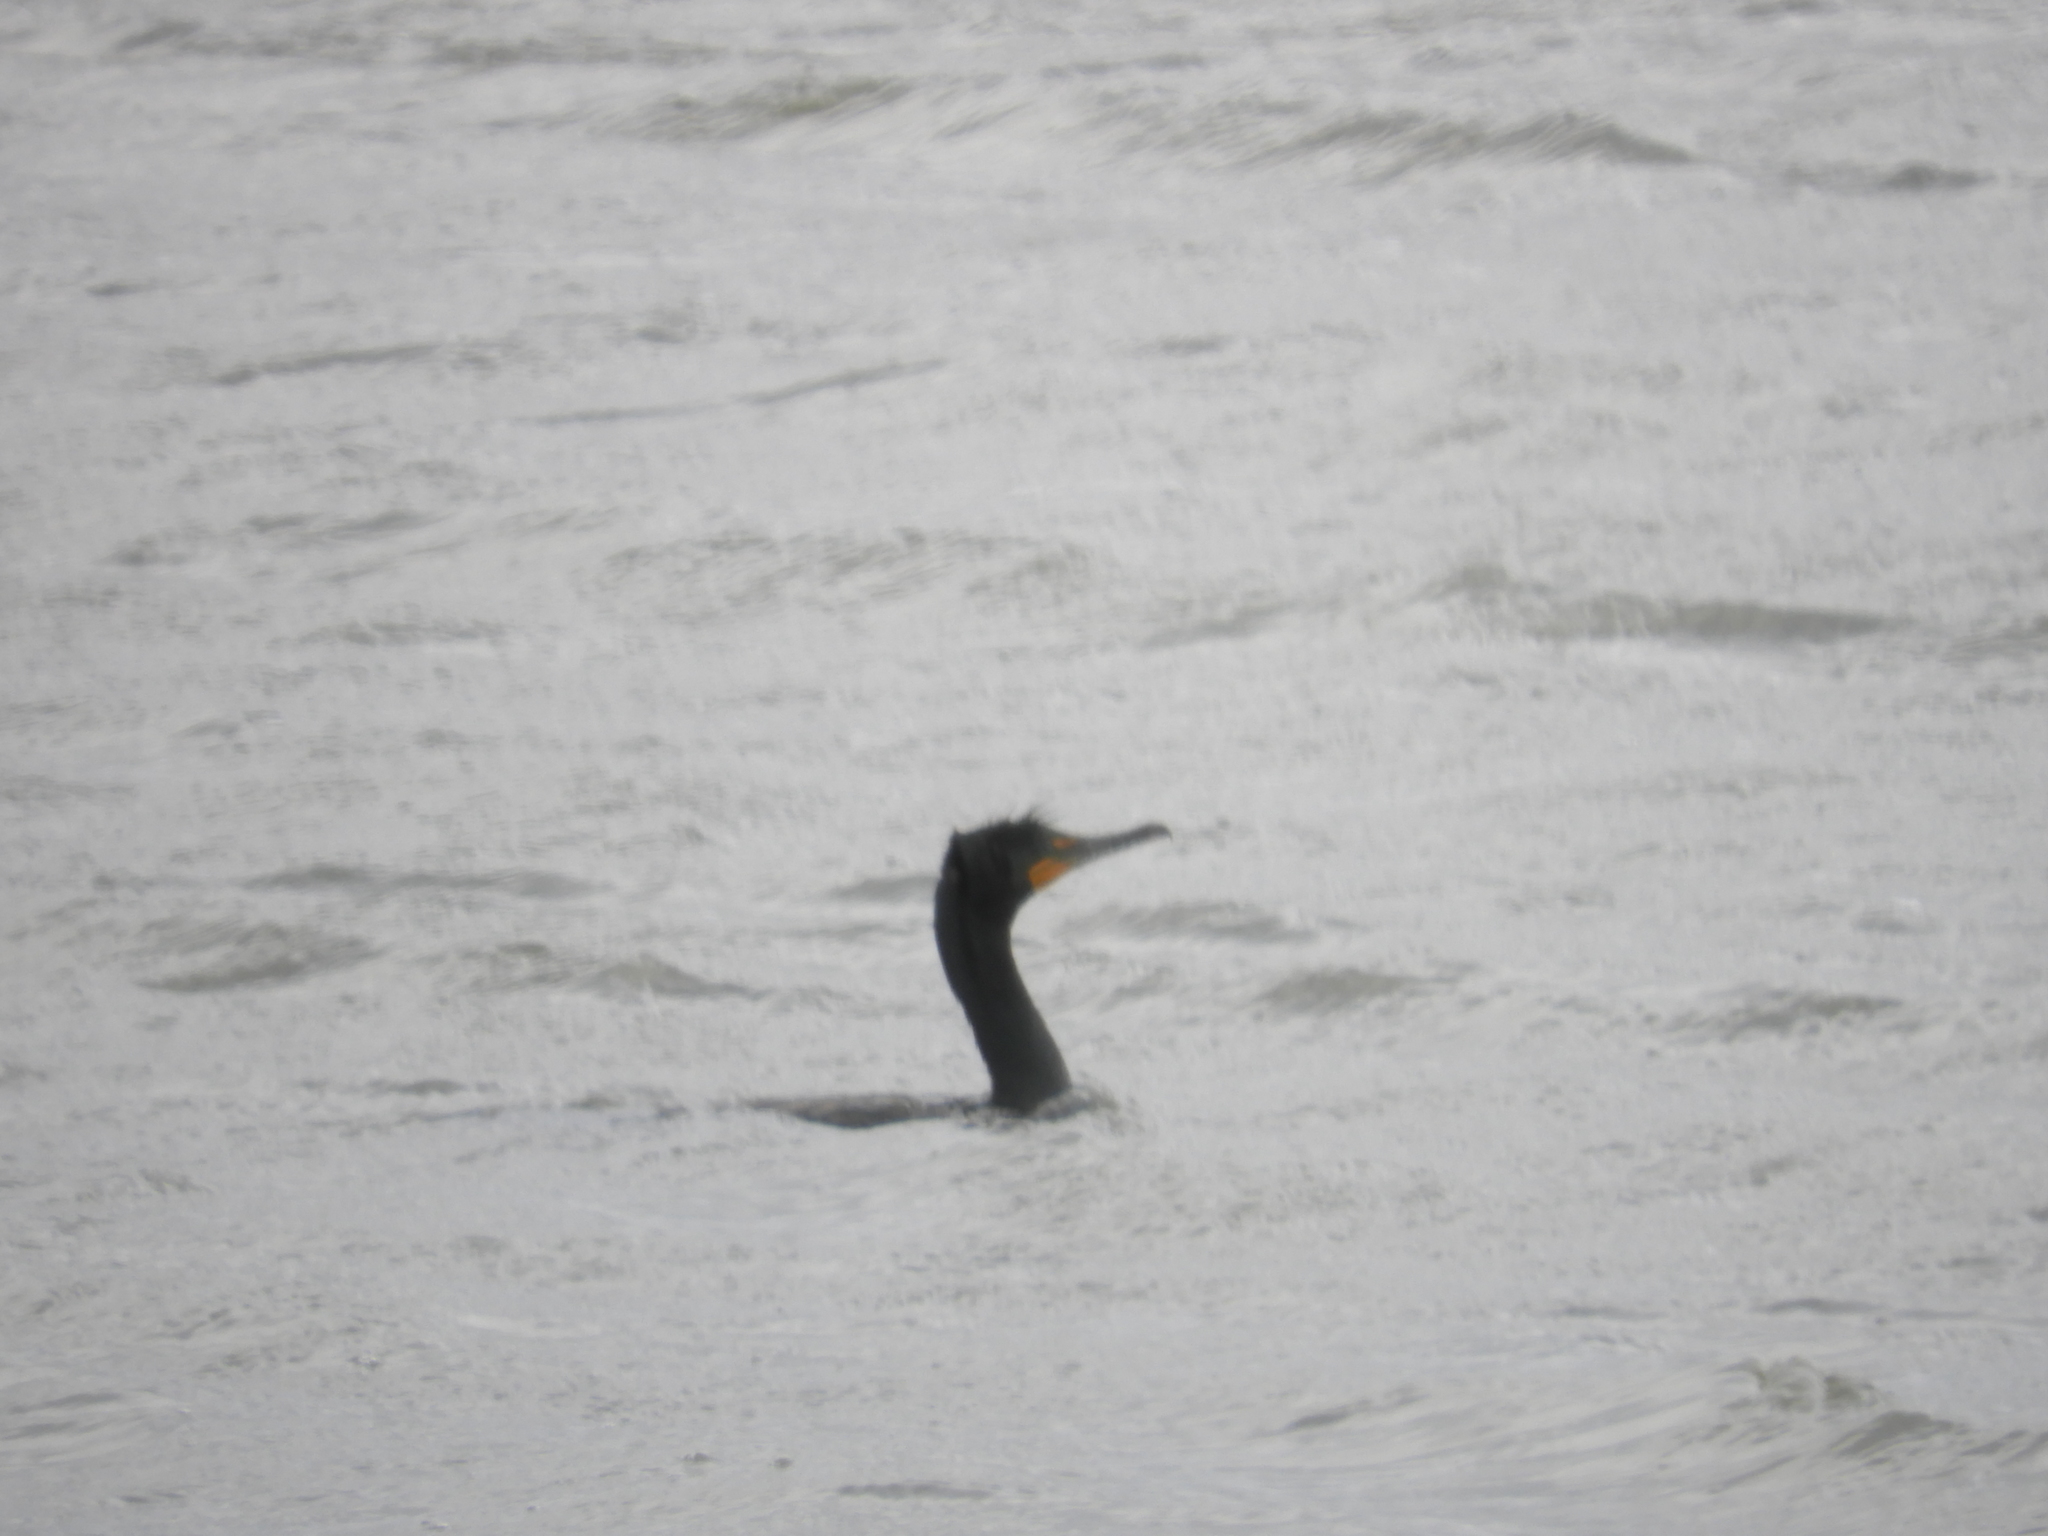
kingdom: Animalia
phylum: Chordata
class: Aves
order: Suliformes
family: Phalacrocoracidae
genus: Phalacrocorax
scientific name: Phalacrocorax auritus
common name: Double-crested cormorant
